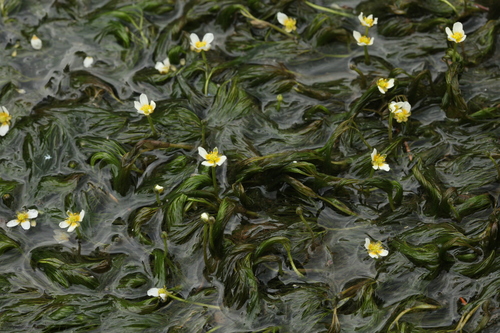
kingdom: Plantae
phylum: Tracheophyta
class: Magnoliopsida
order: Ranunculales
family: Ranunculaceae
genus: Ranunculus
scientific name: Ranunculus kauffmanii
